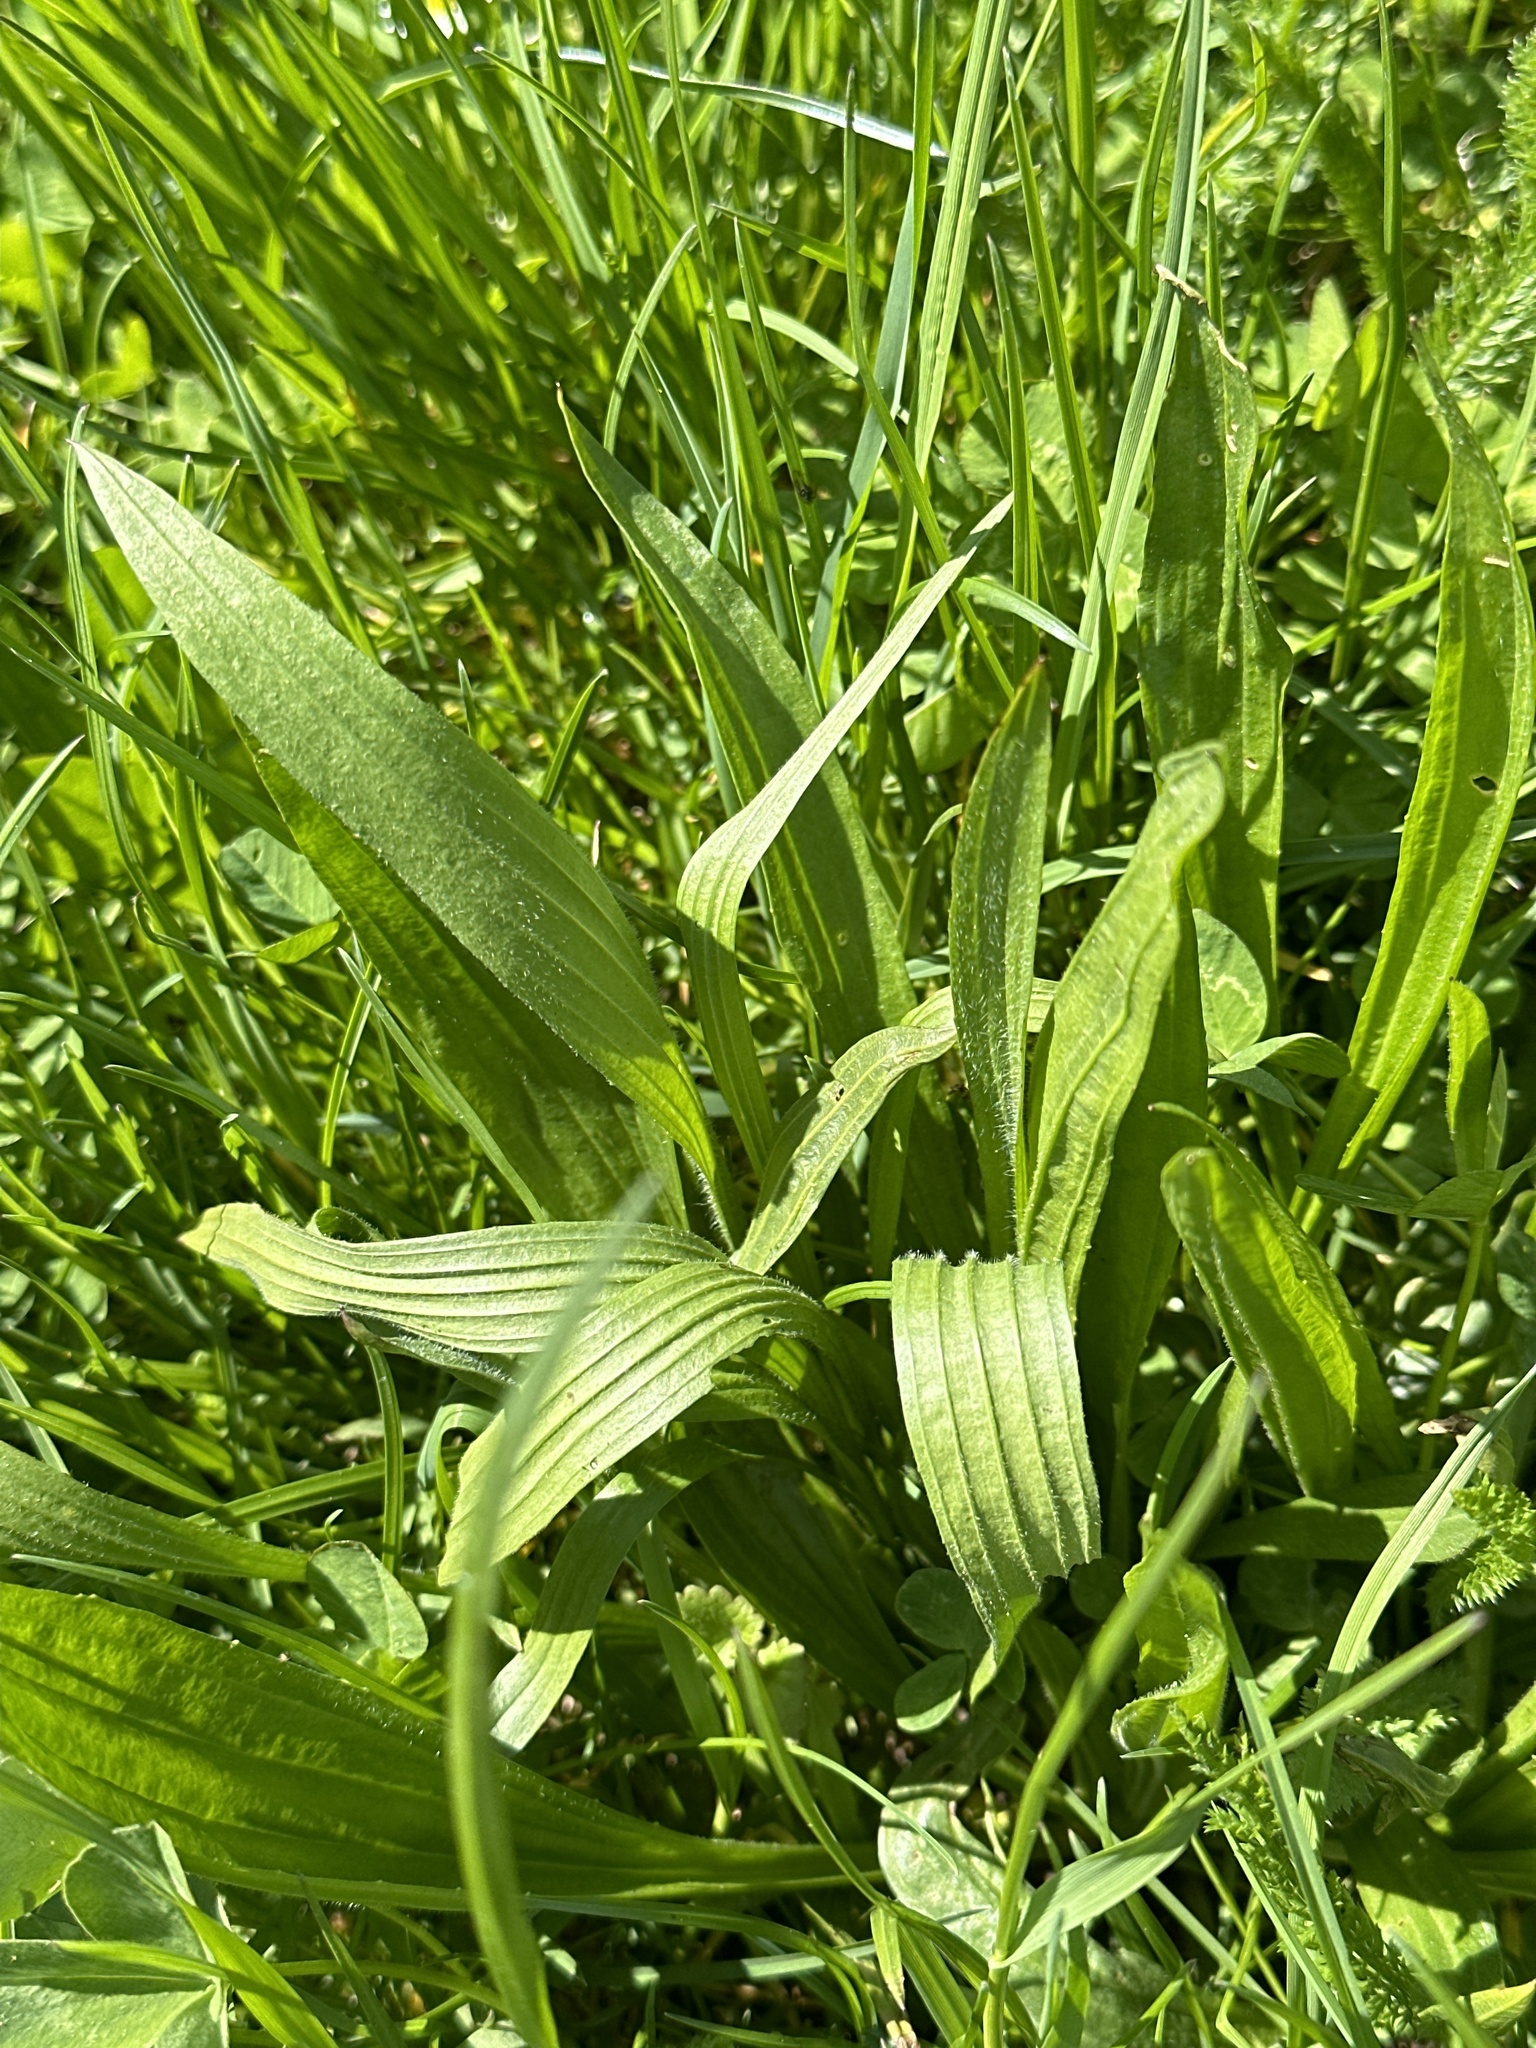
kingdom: Plantae
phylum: Tracheophyta
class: Magnoliopsida
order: Lamiales
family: Plantaginaceae
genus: Plantago
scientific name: Plantago lanceolata
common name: Ribwort plantain
